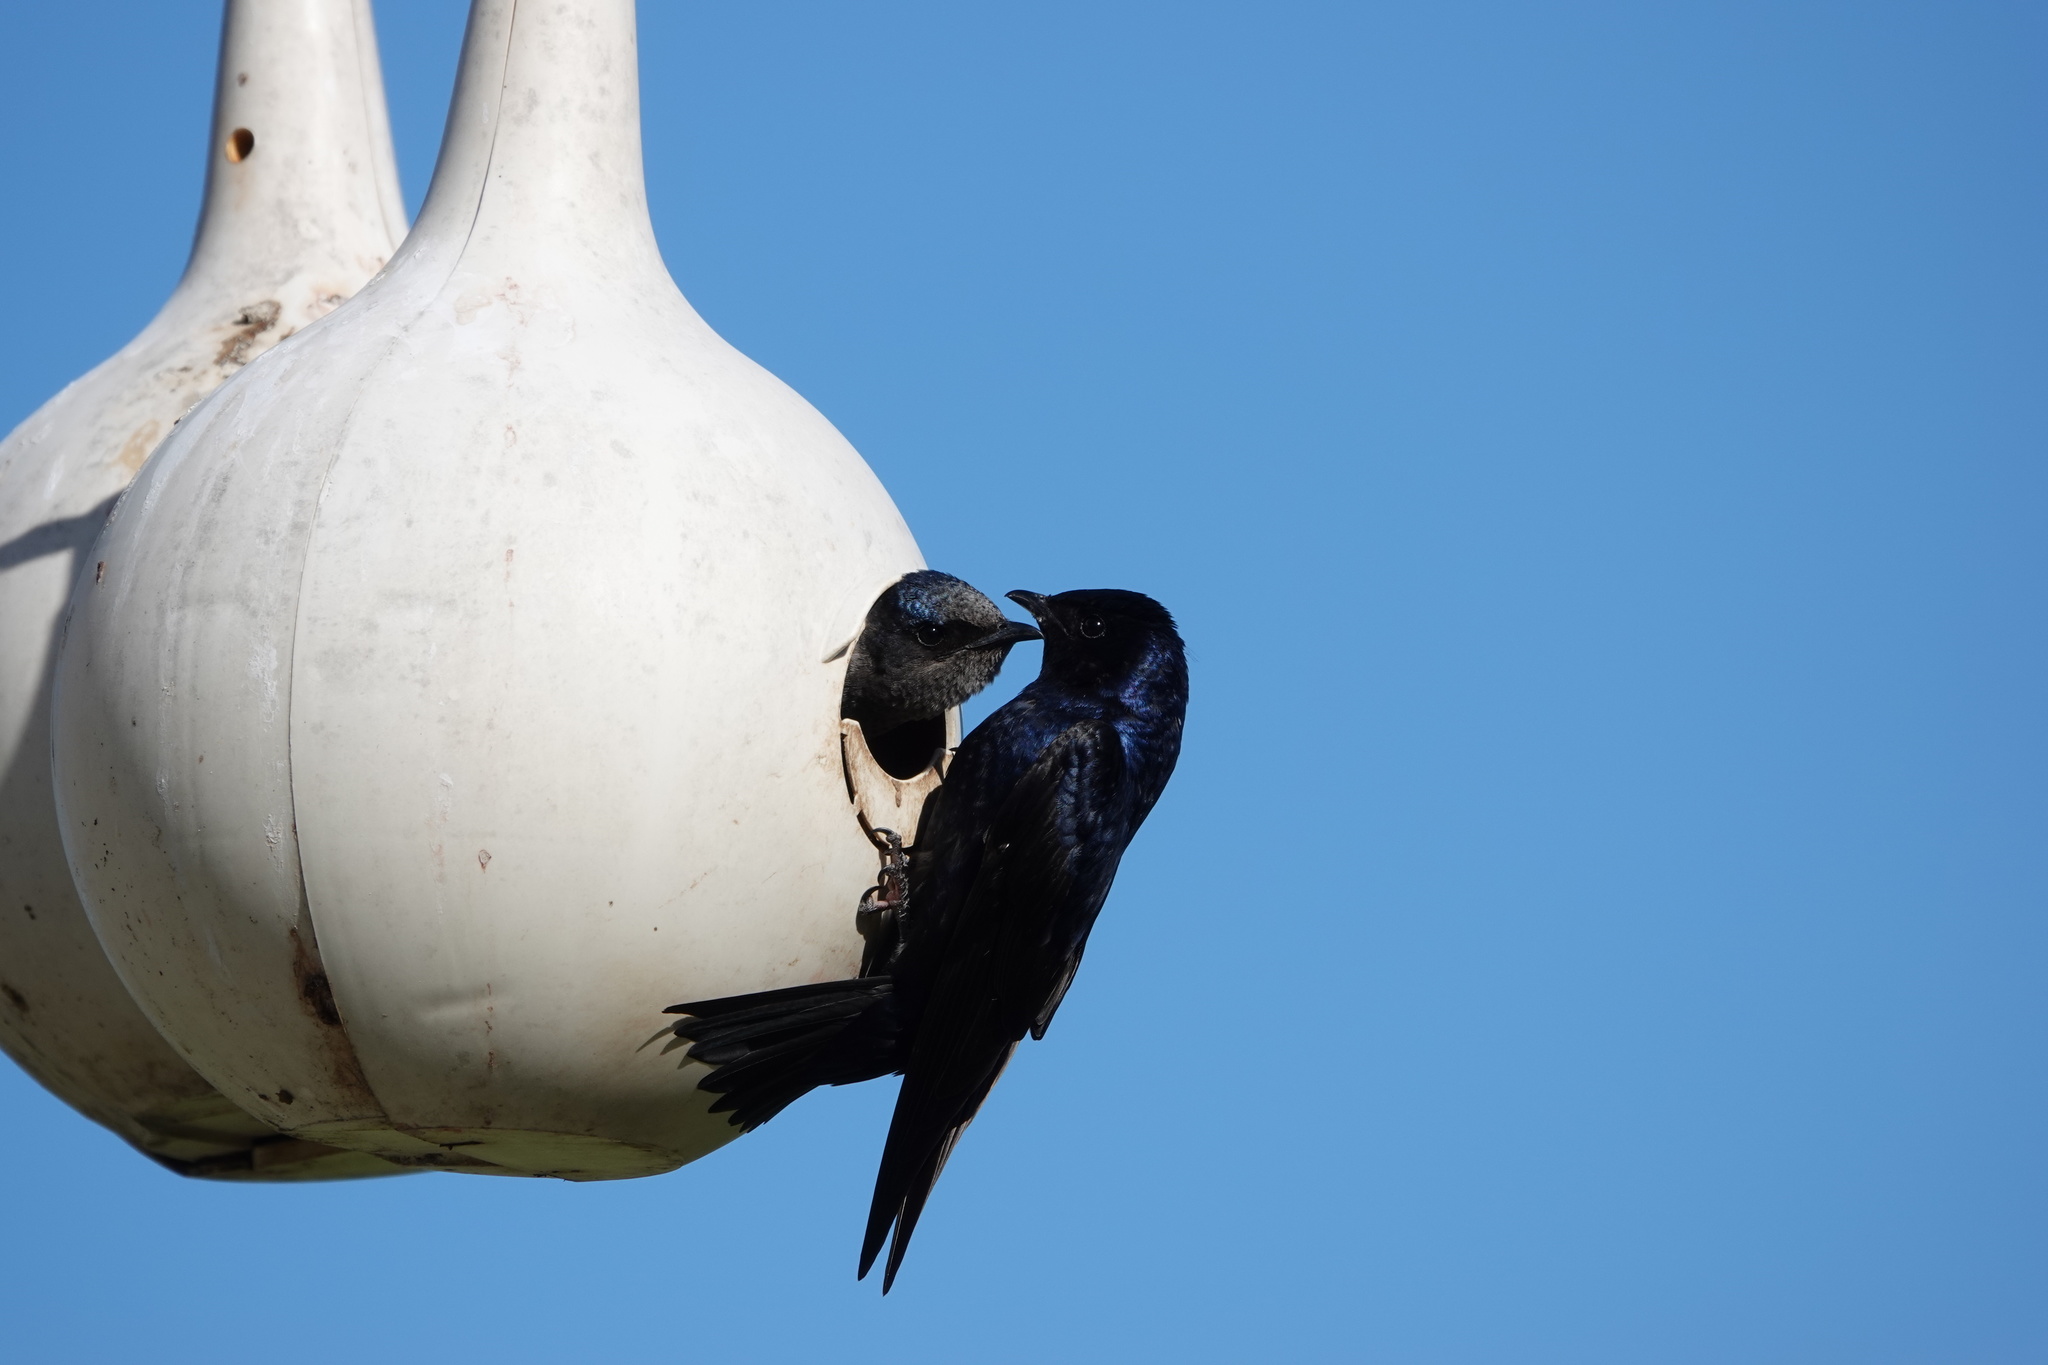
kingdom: Animalia
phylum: Chordata
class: Aves
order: Passeriformes
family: Hirundinidae
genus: Progne
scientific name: Progne subis
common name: Purple martin
